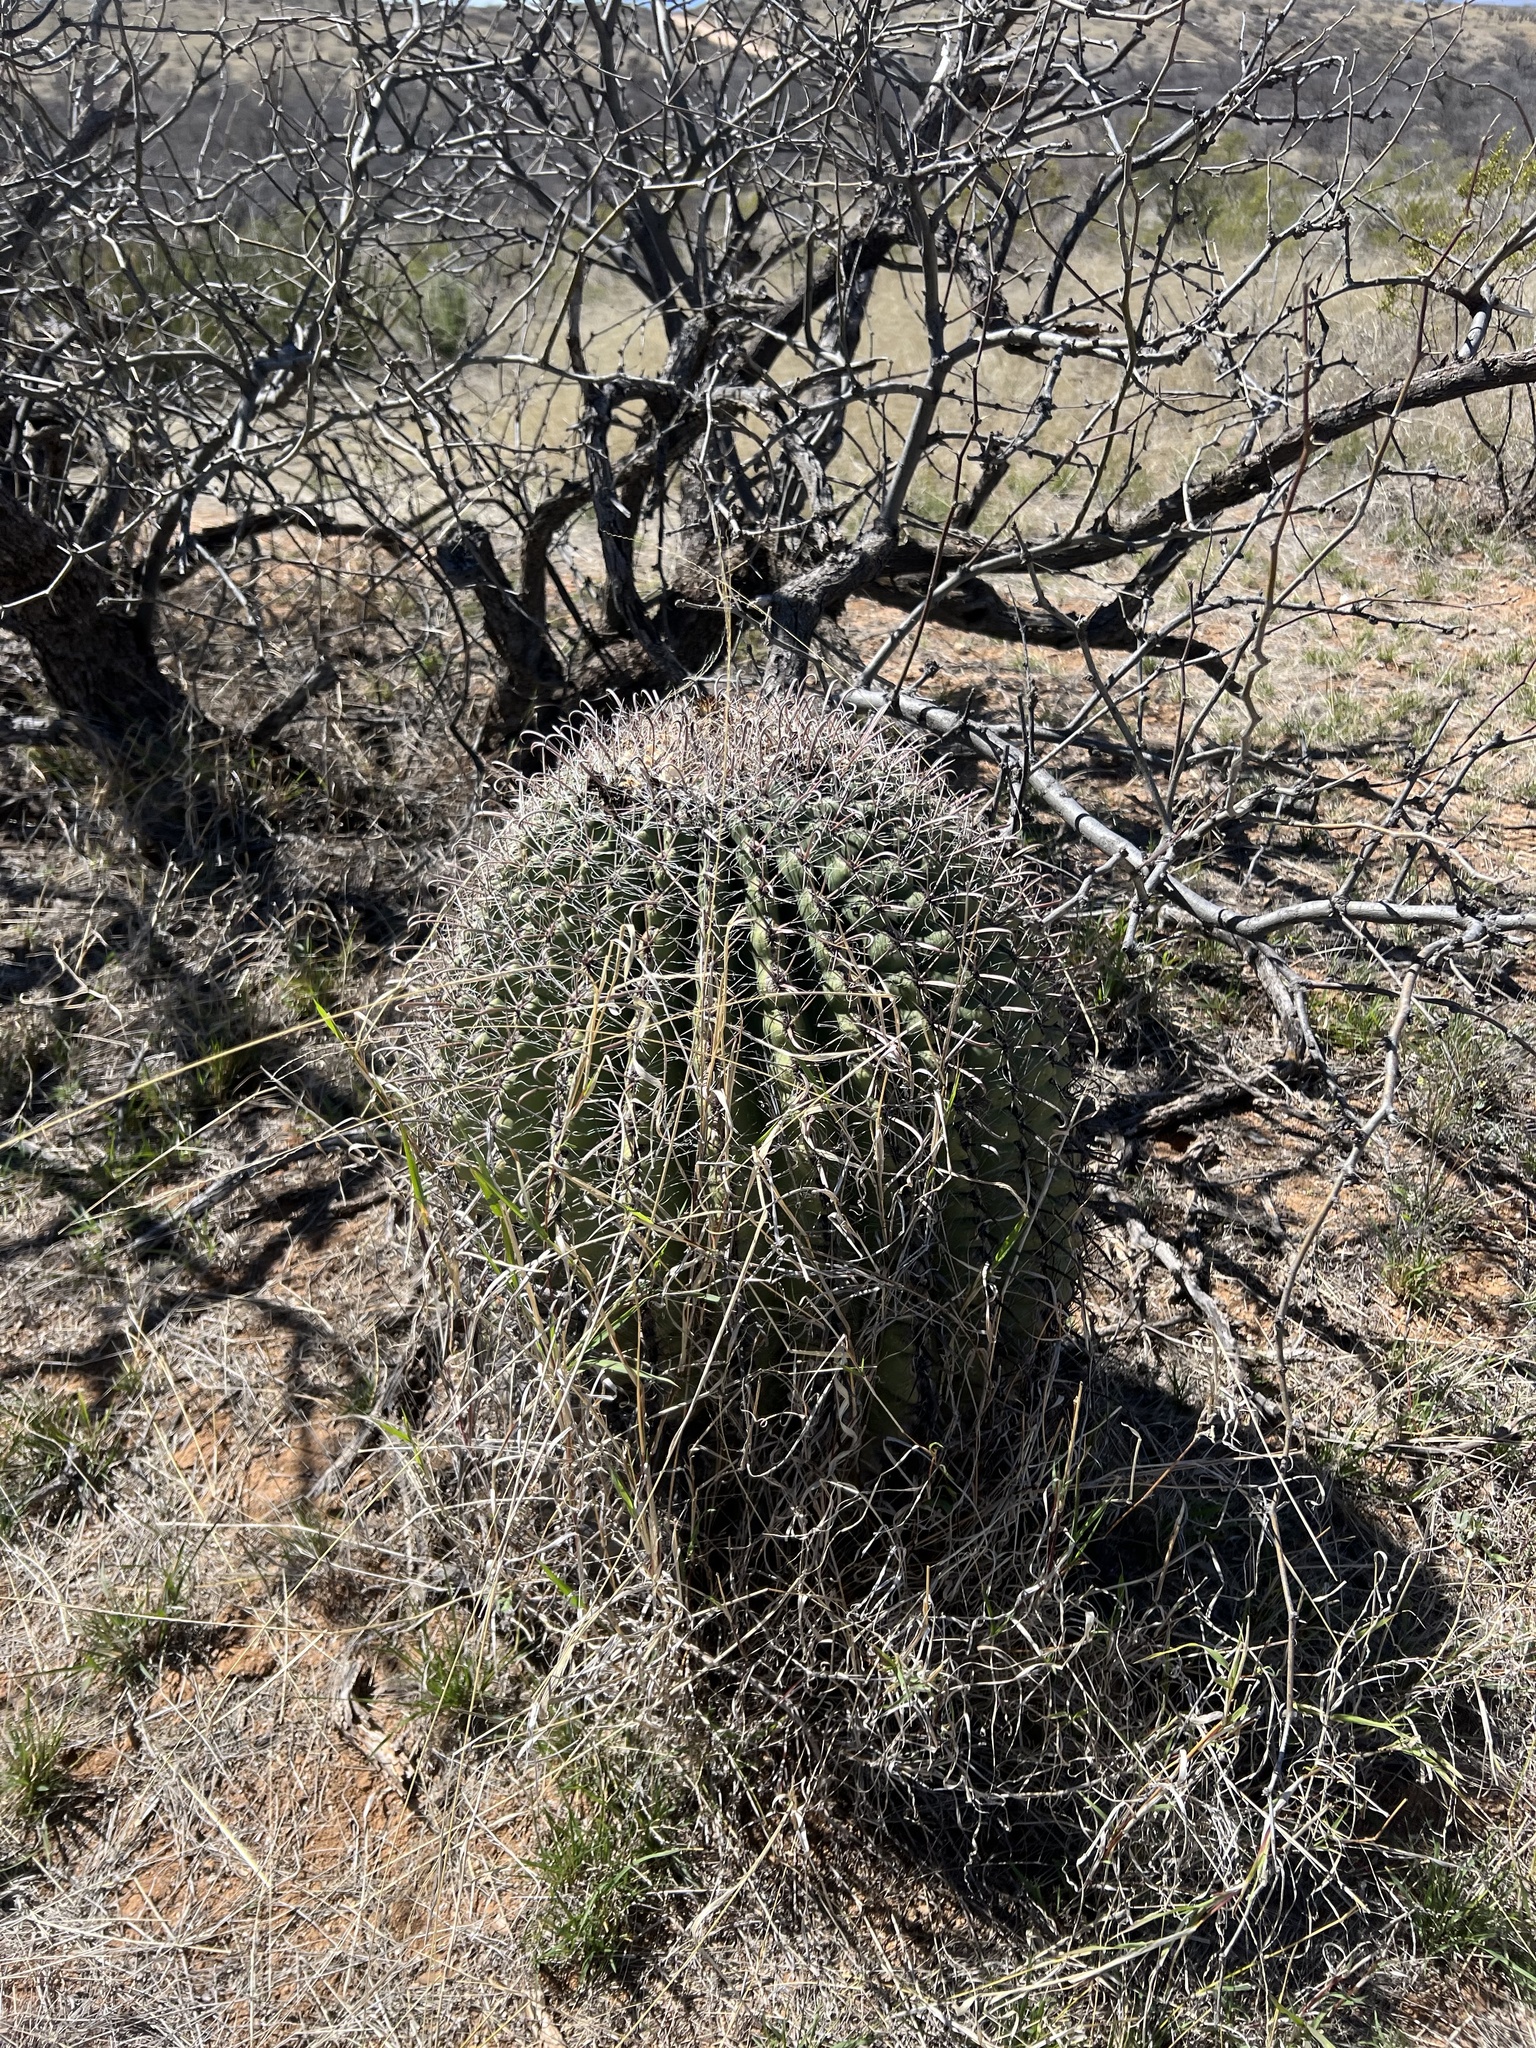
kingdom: Plantae
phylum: Tracheophyta
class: Magnoliopsida
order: Caryophyllales
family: Cactaceae
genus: Ferocactus
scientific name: Ferocactus wislizeni
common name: Candy barrel cactus
